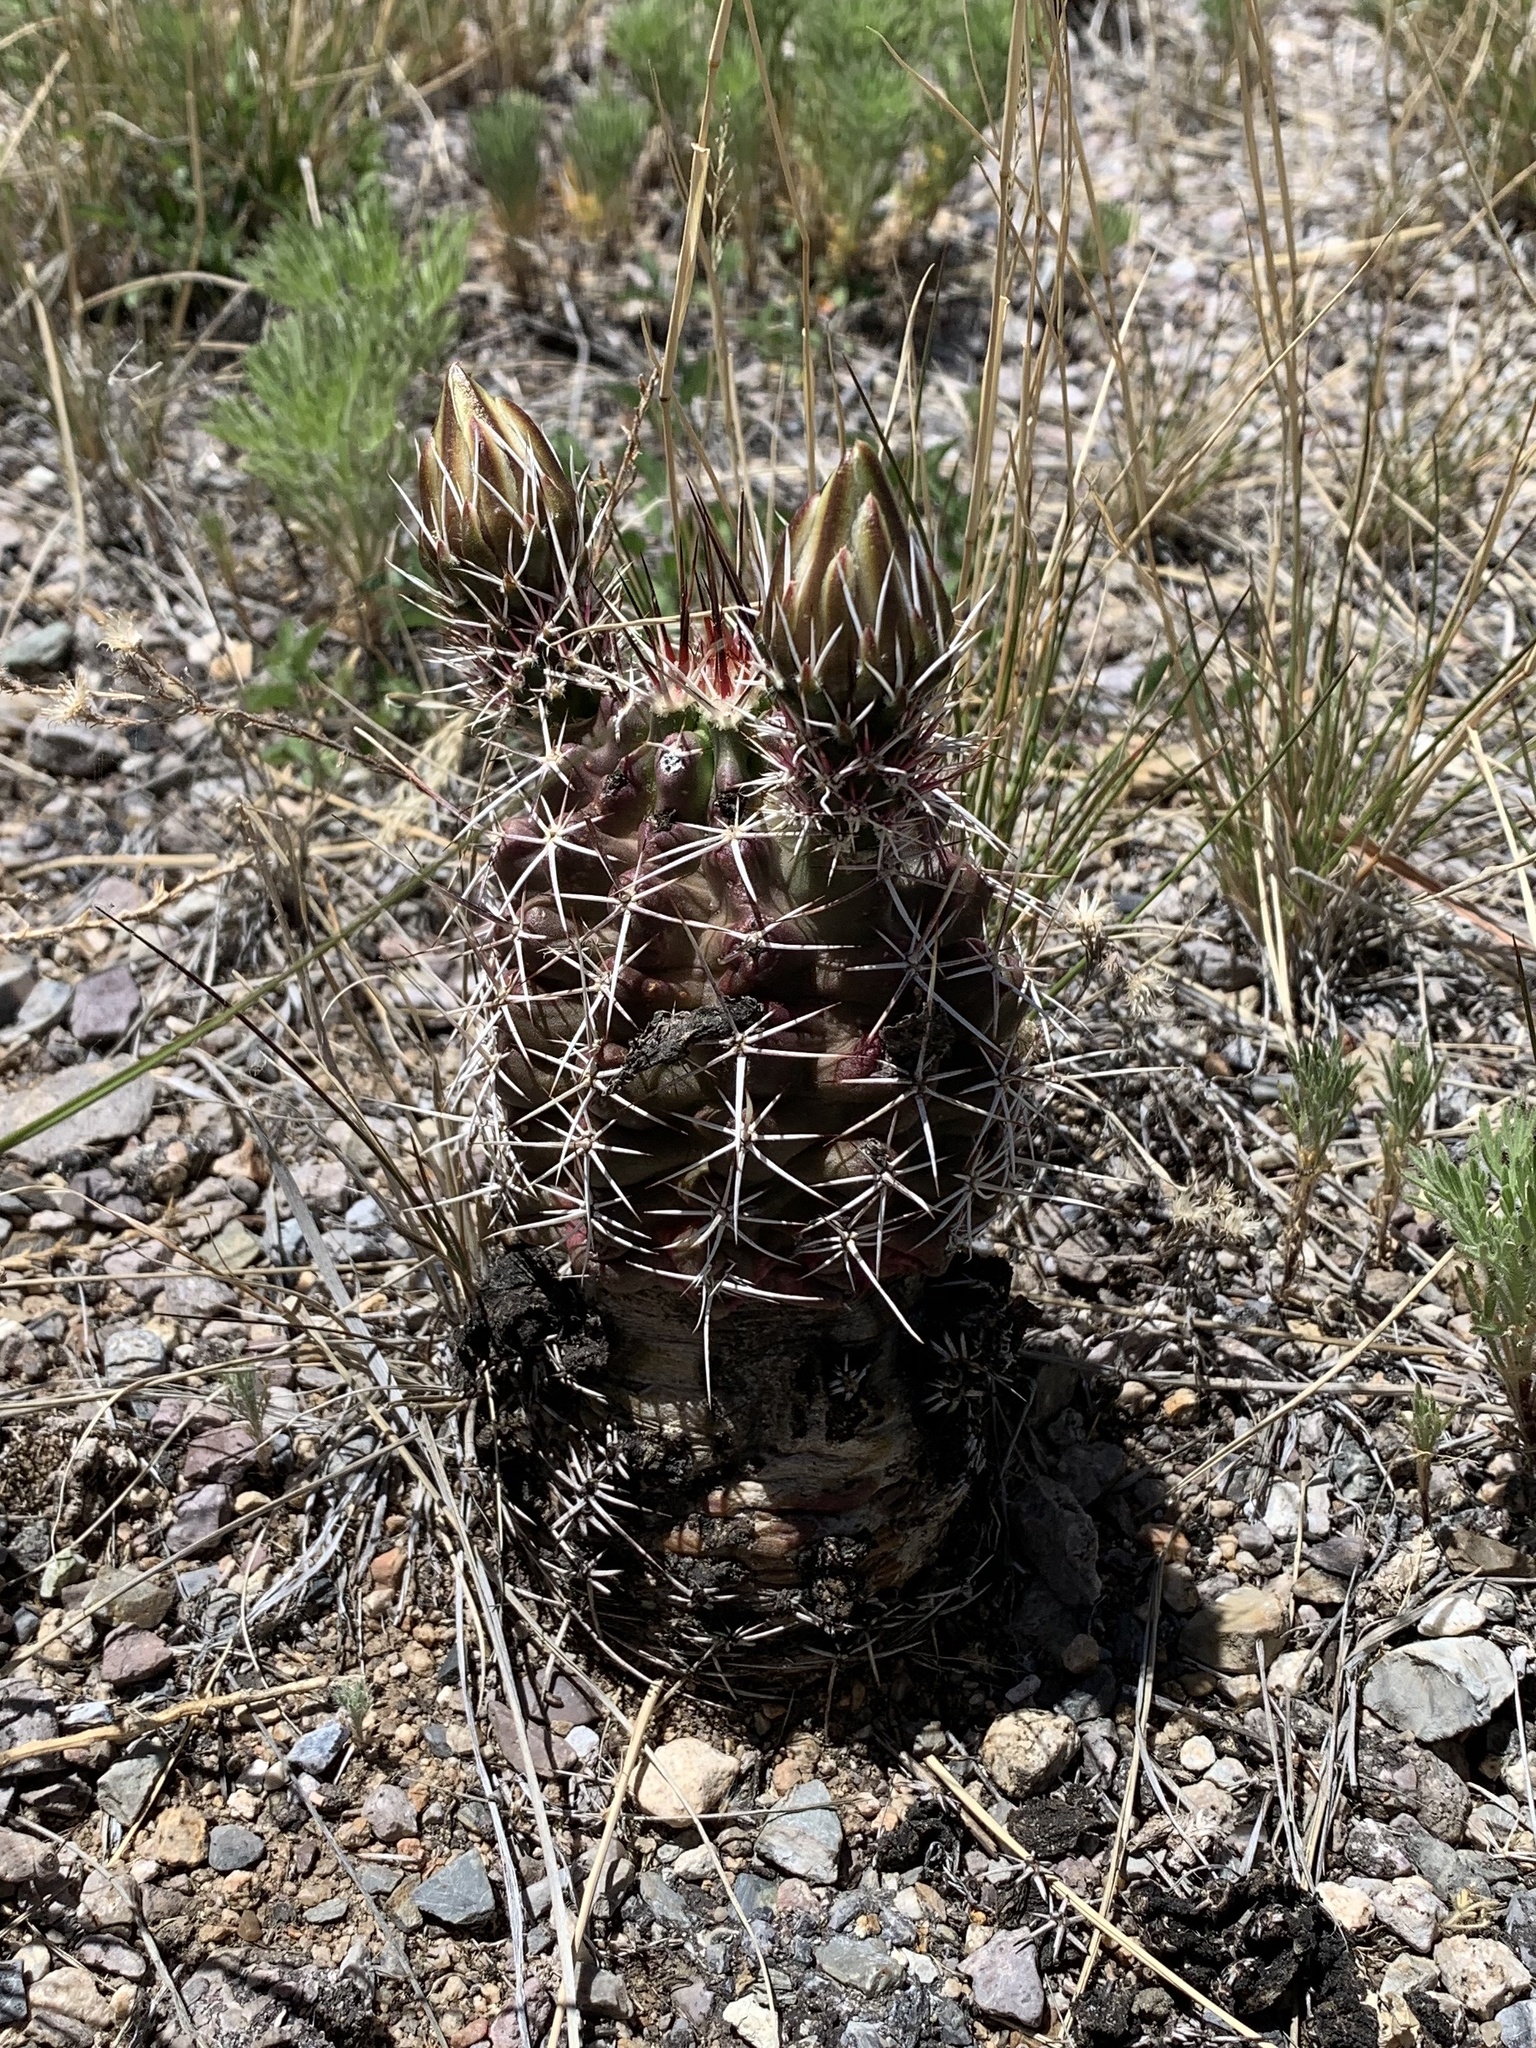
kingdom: Plantae
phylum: Tracheophyta
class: Magnoliopsida
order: Caryophyllales
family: Cactaceae
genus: Echinocereus
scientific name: Echinocereus fendleri
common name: Fendler's hedgehog cactus
